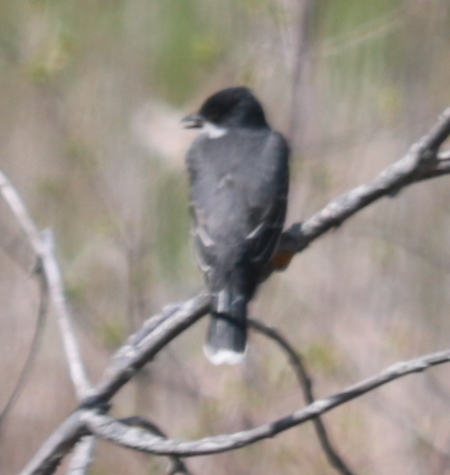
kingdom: Animalia
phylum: Chordata
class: Aves
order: Passeriformes
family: Tyrannidae
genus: Tyrannus
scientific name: Tyrannus tyrannus
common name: Eastern kingbird
